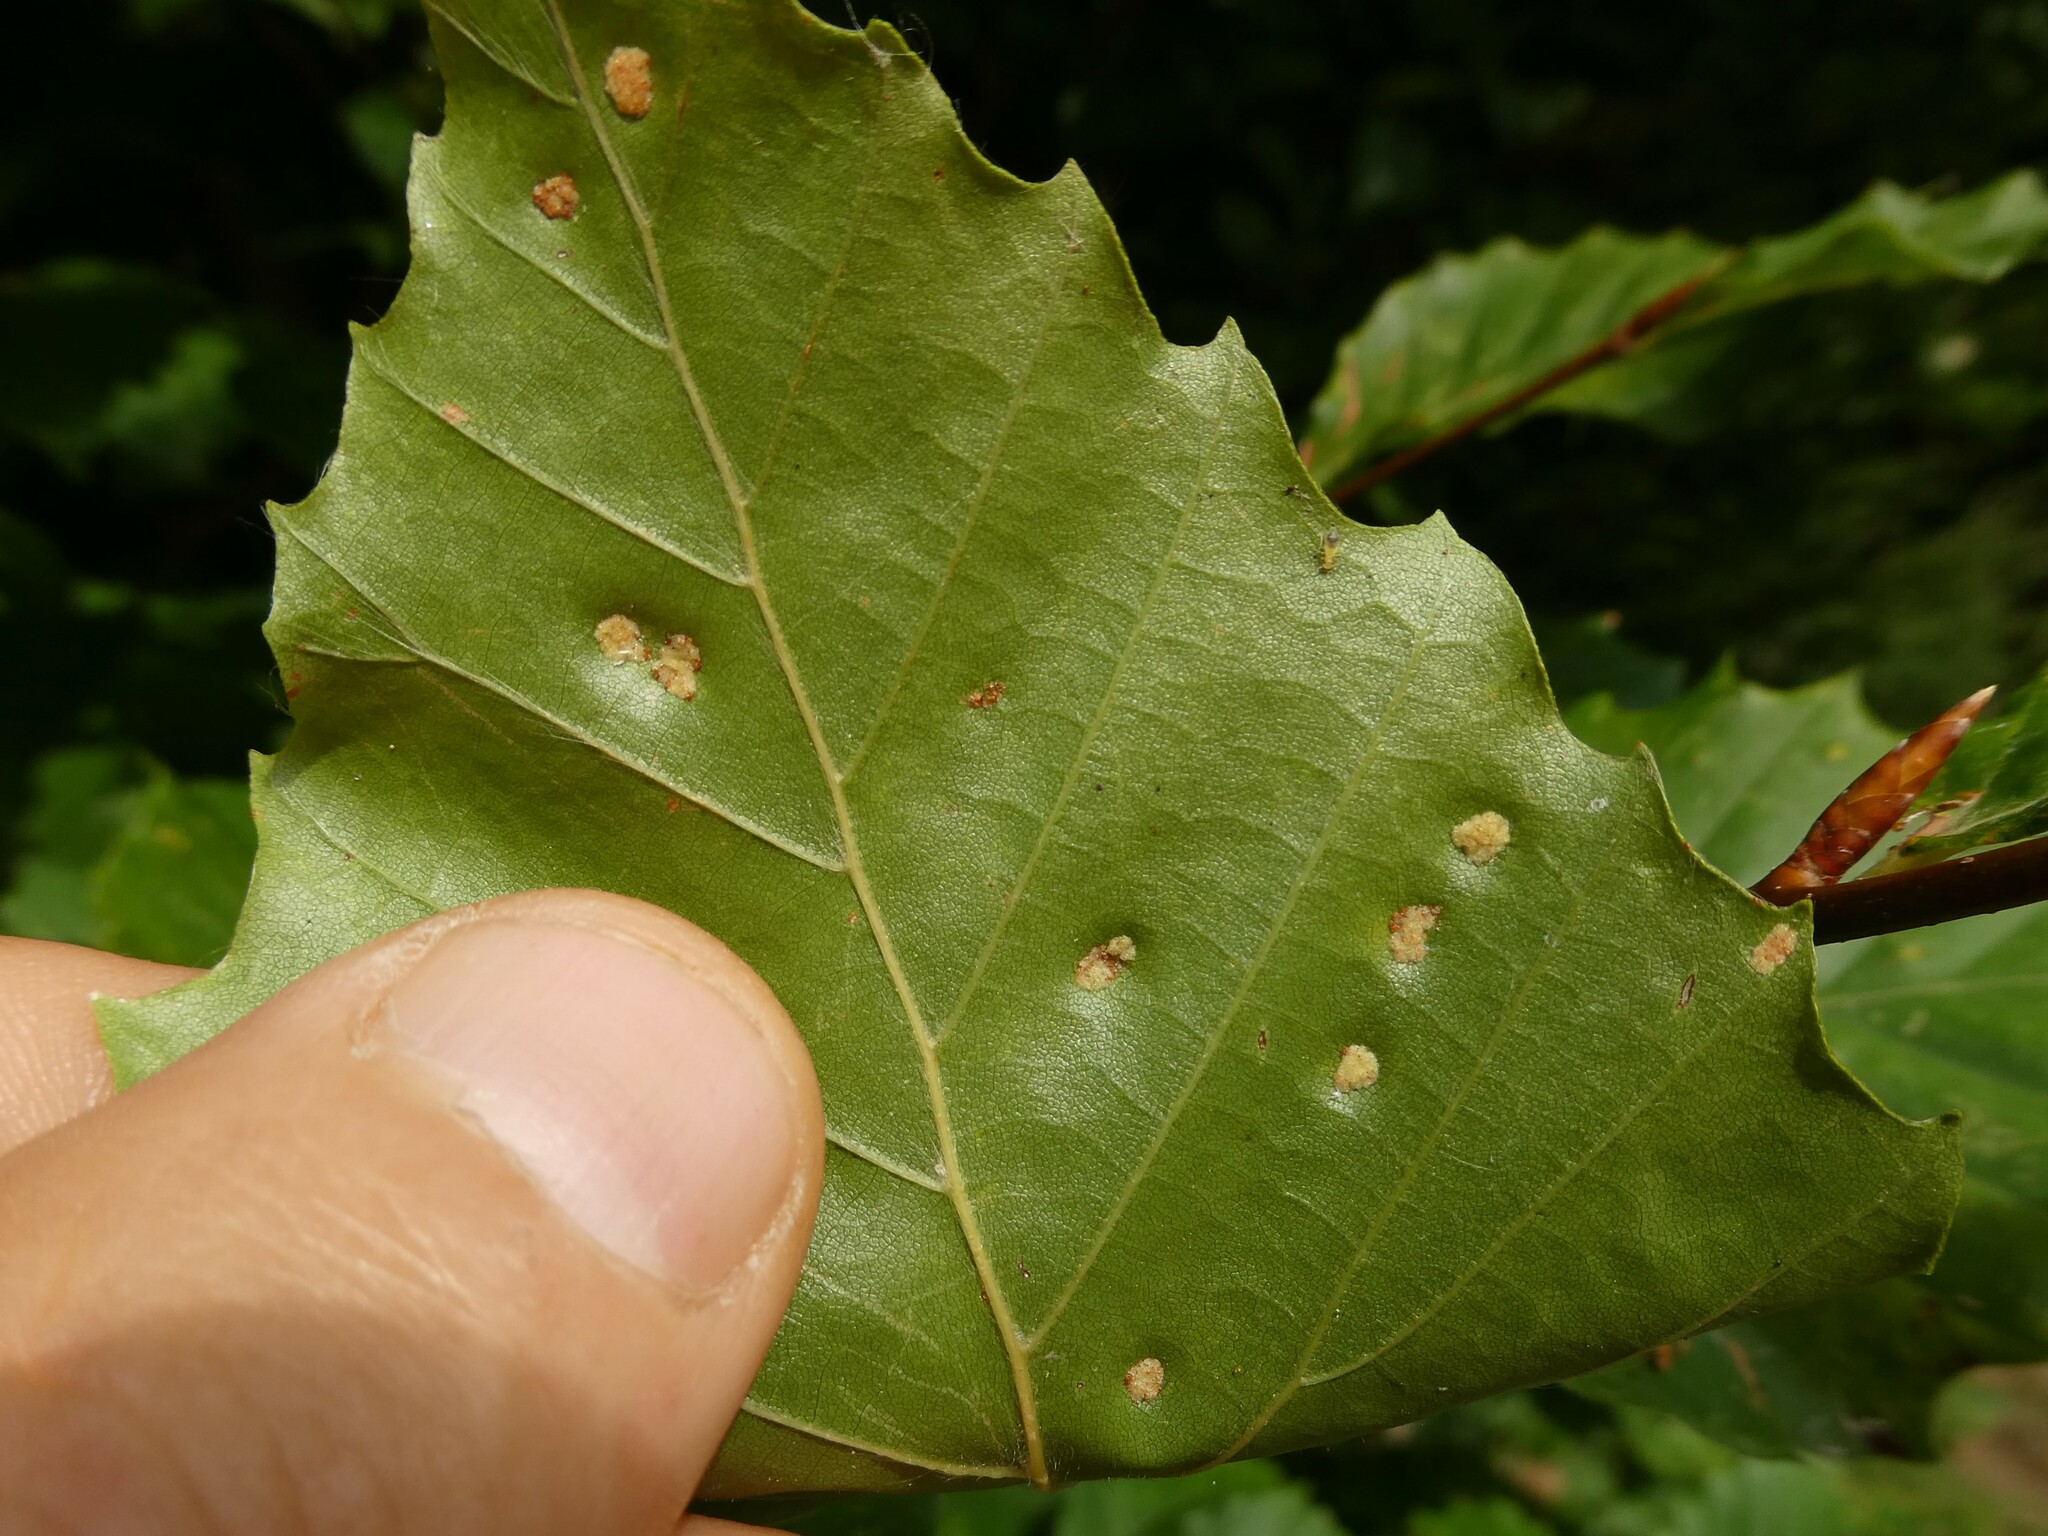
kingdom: Animalia
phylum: Arthropoda
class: Arachnida
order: Trombidiformes
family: Eriophyidae
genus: Acalitus
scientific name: Acalitus
